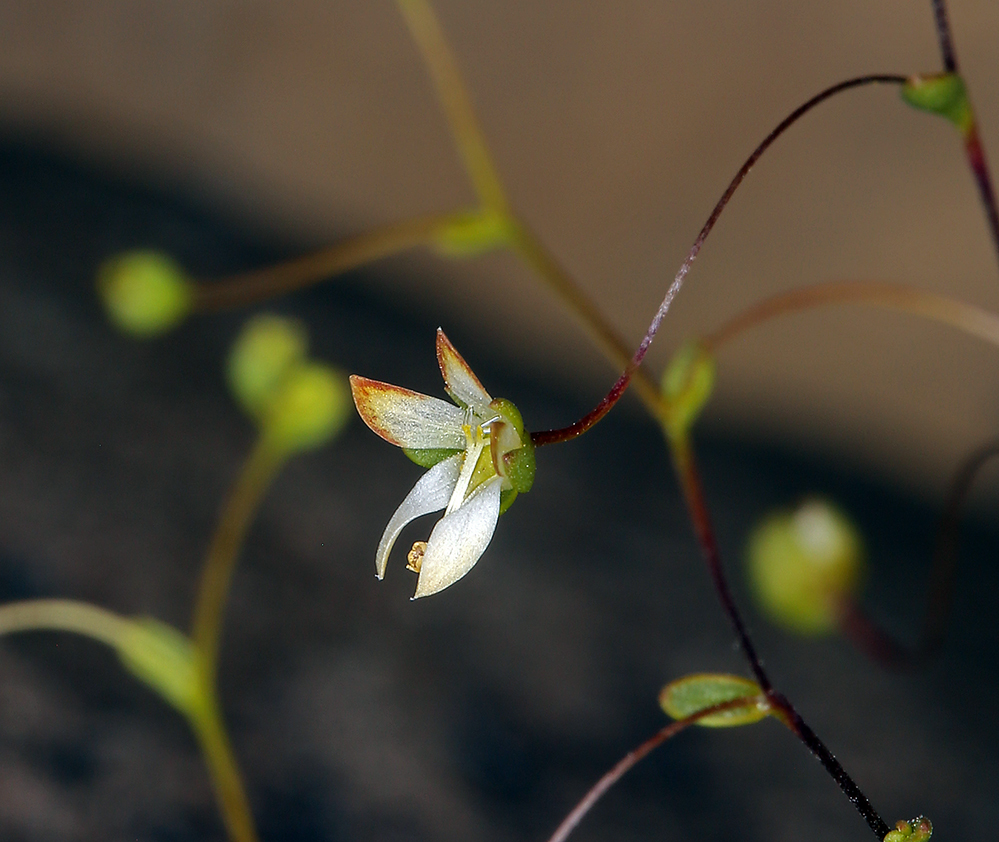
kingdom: Plantae
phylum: Tracheophyta
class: Magnoliopsida
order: Asterales
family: Campanulaceae
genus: Nemacladus
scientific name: Nemacladus morefieldii
